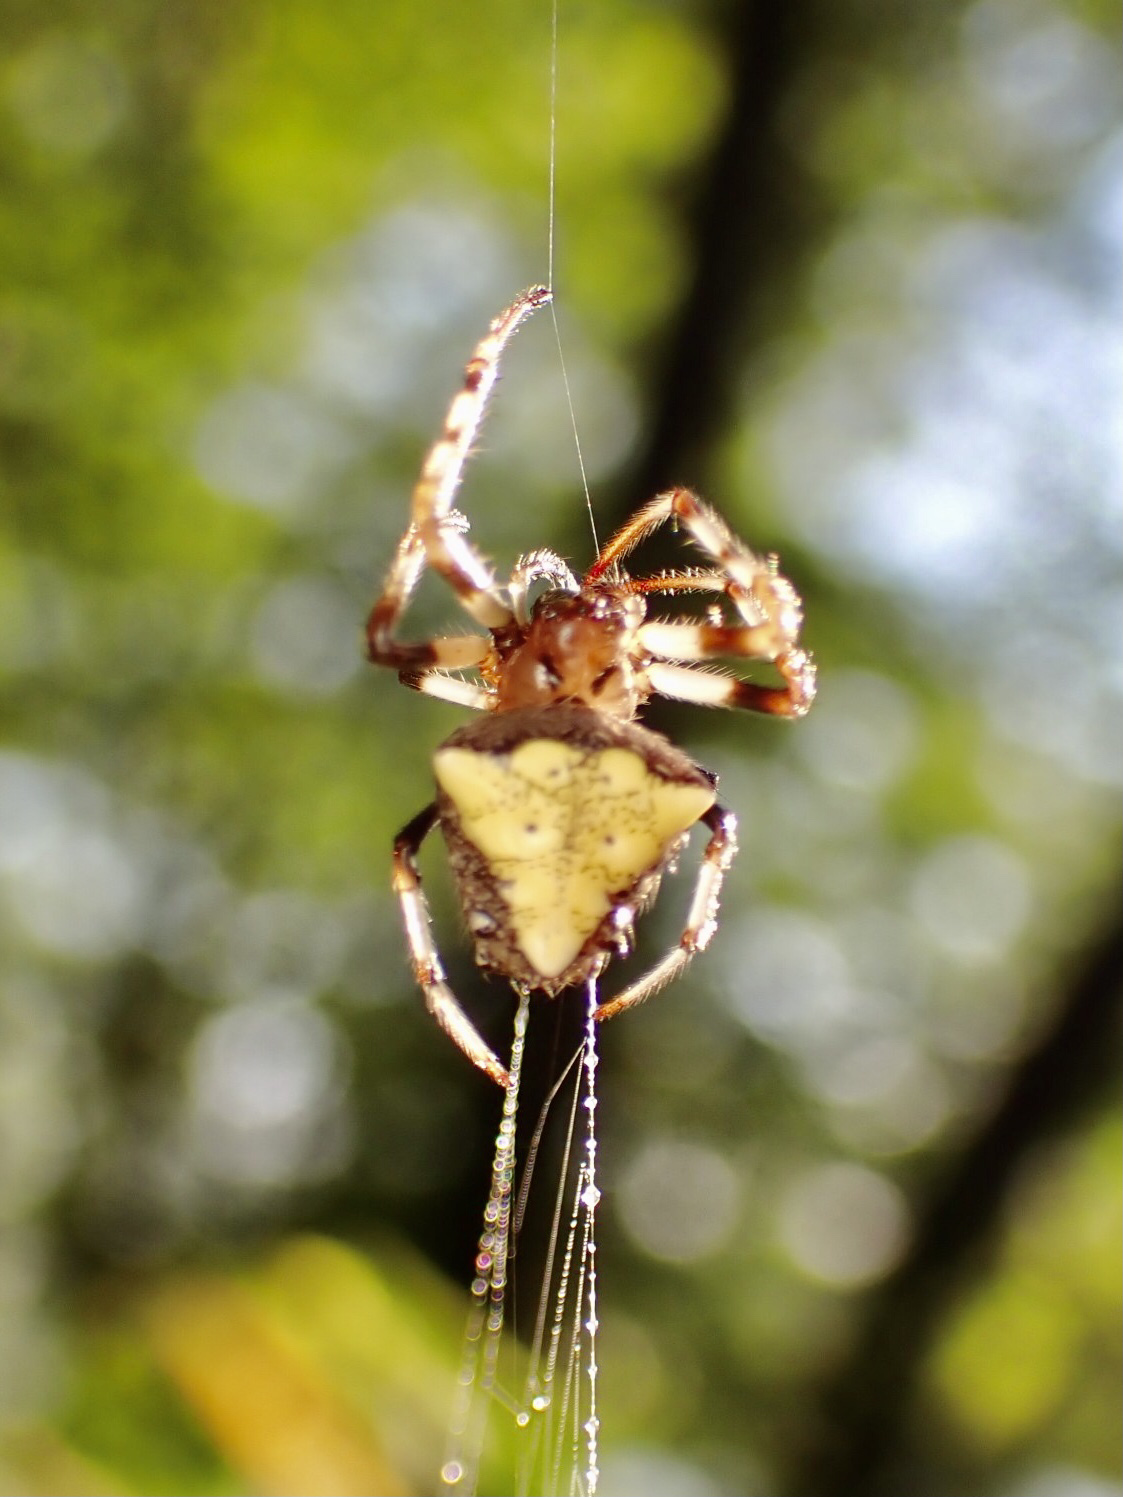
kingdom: Animalia
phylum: Arthropoda
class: Arachnida
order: Araneae
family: Araneidae
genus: Verrucosa
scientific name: Verrucosa arenata
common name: Orb weavers
